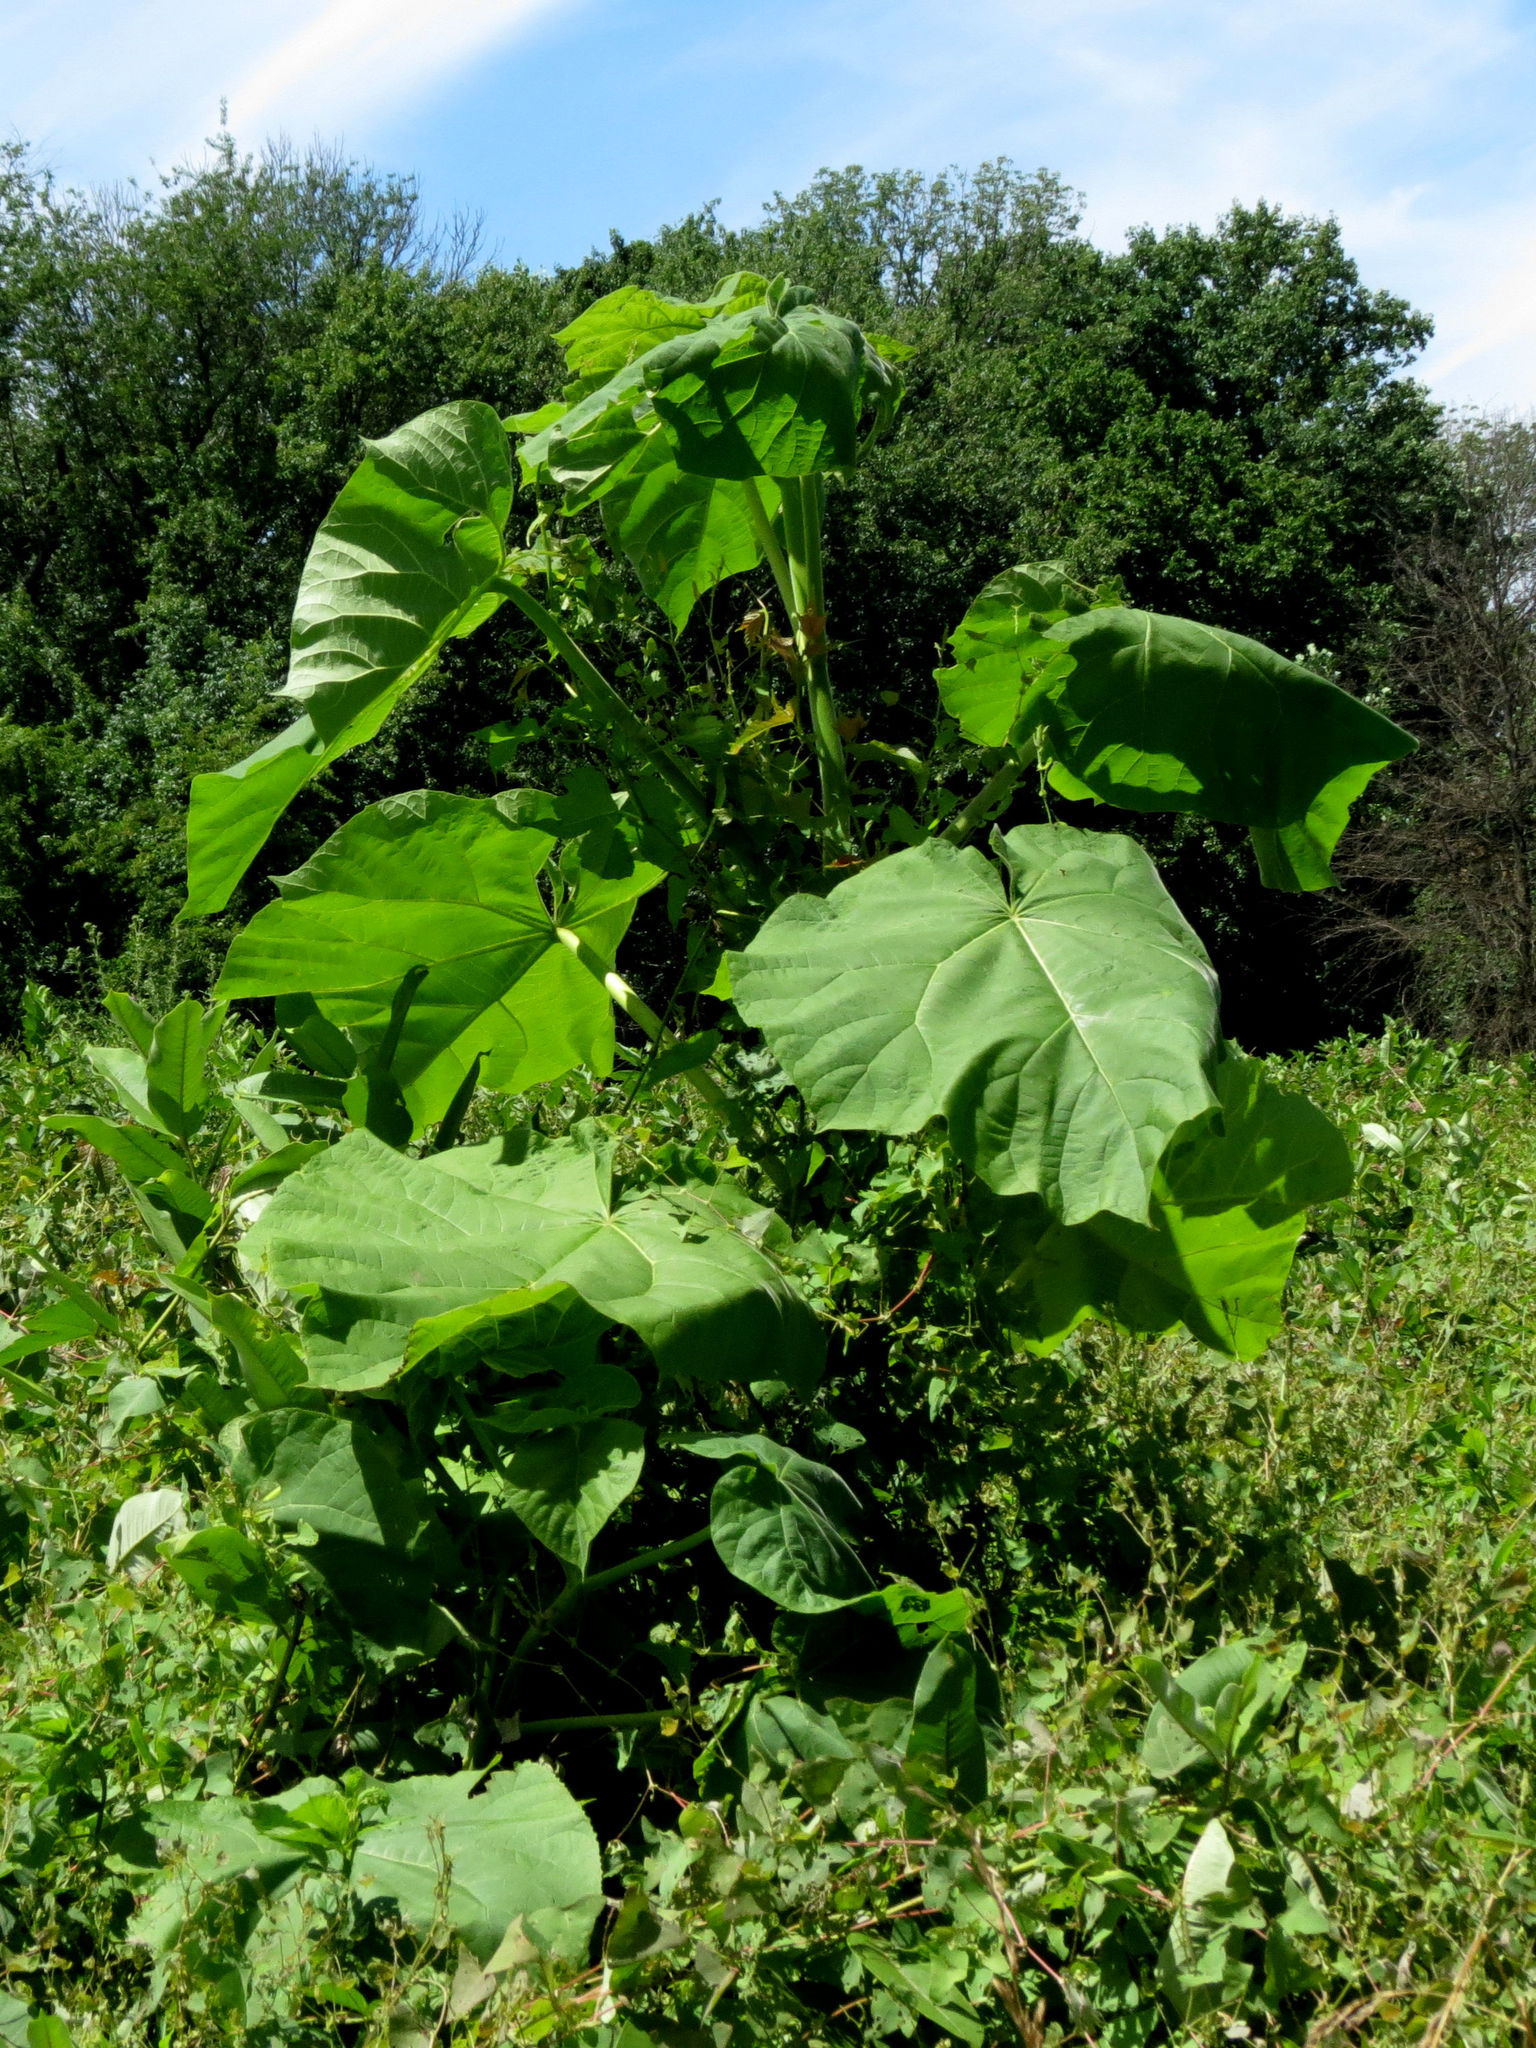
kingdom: Plantae
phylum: Tracheophyta
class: Magnoliopsida
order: Lamiales
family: Paulowniaceae
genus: Paulownia
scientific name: Paulownia tomentosa
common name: Foxglove-tree
